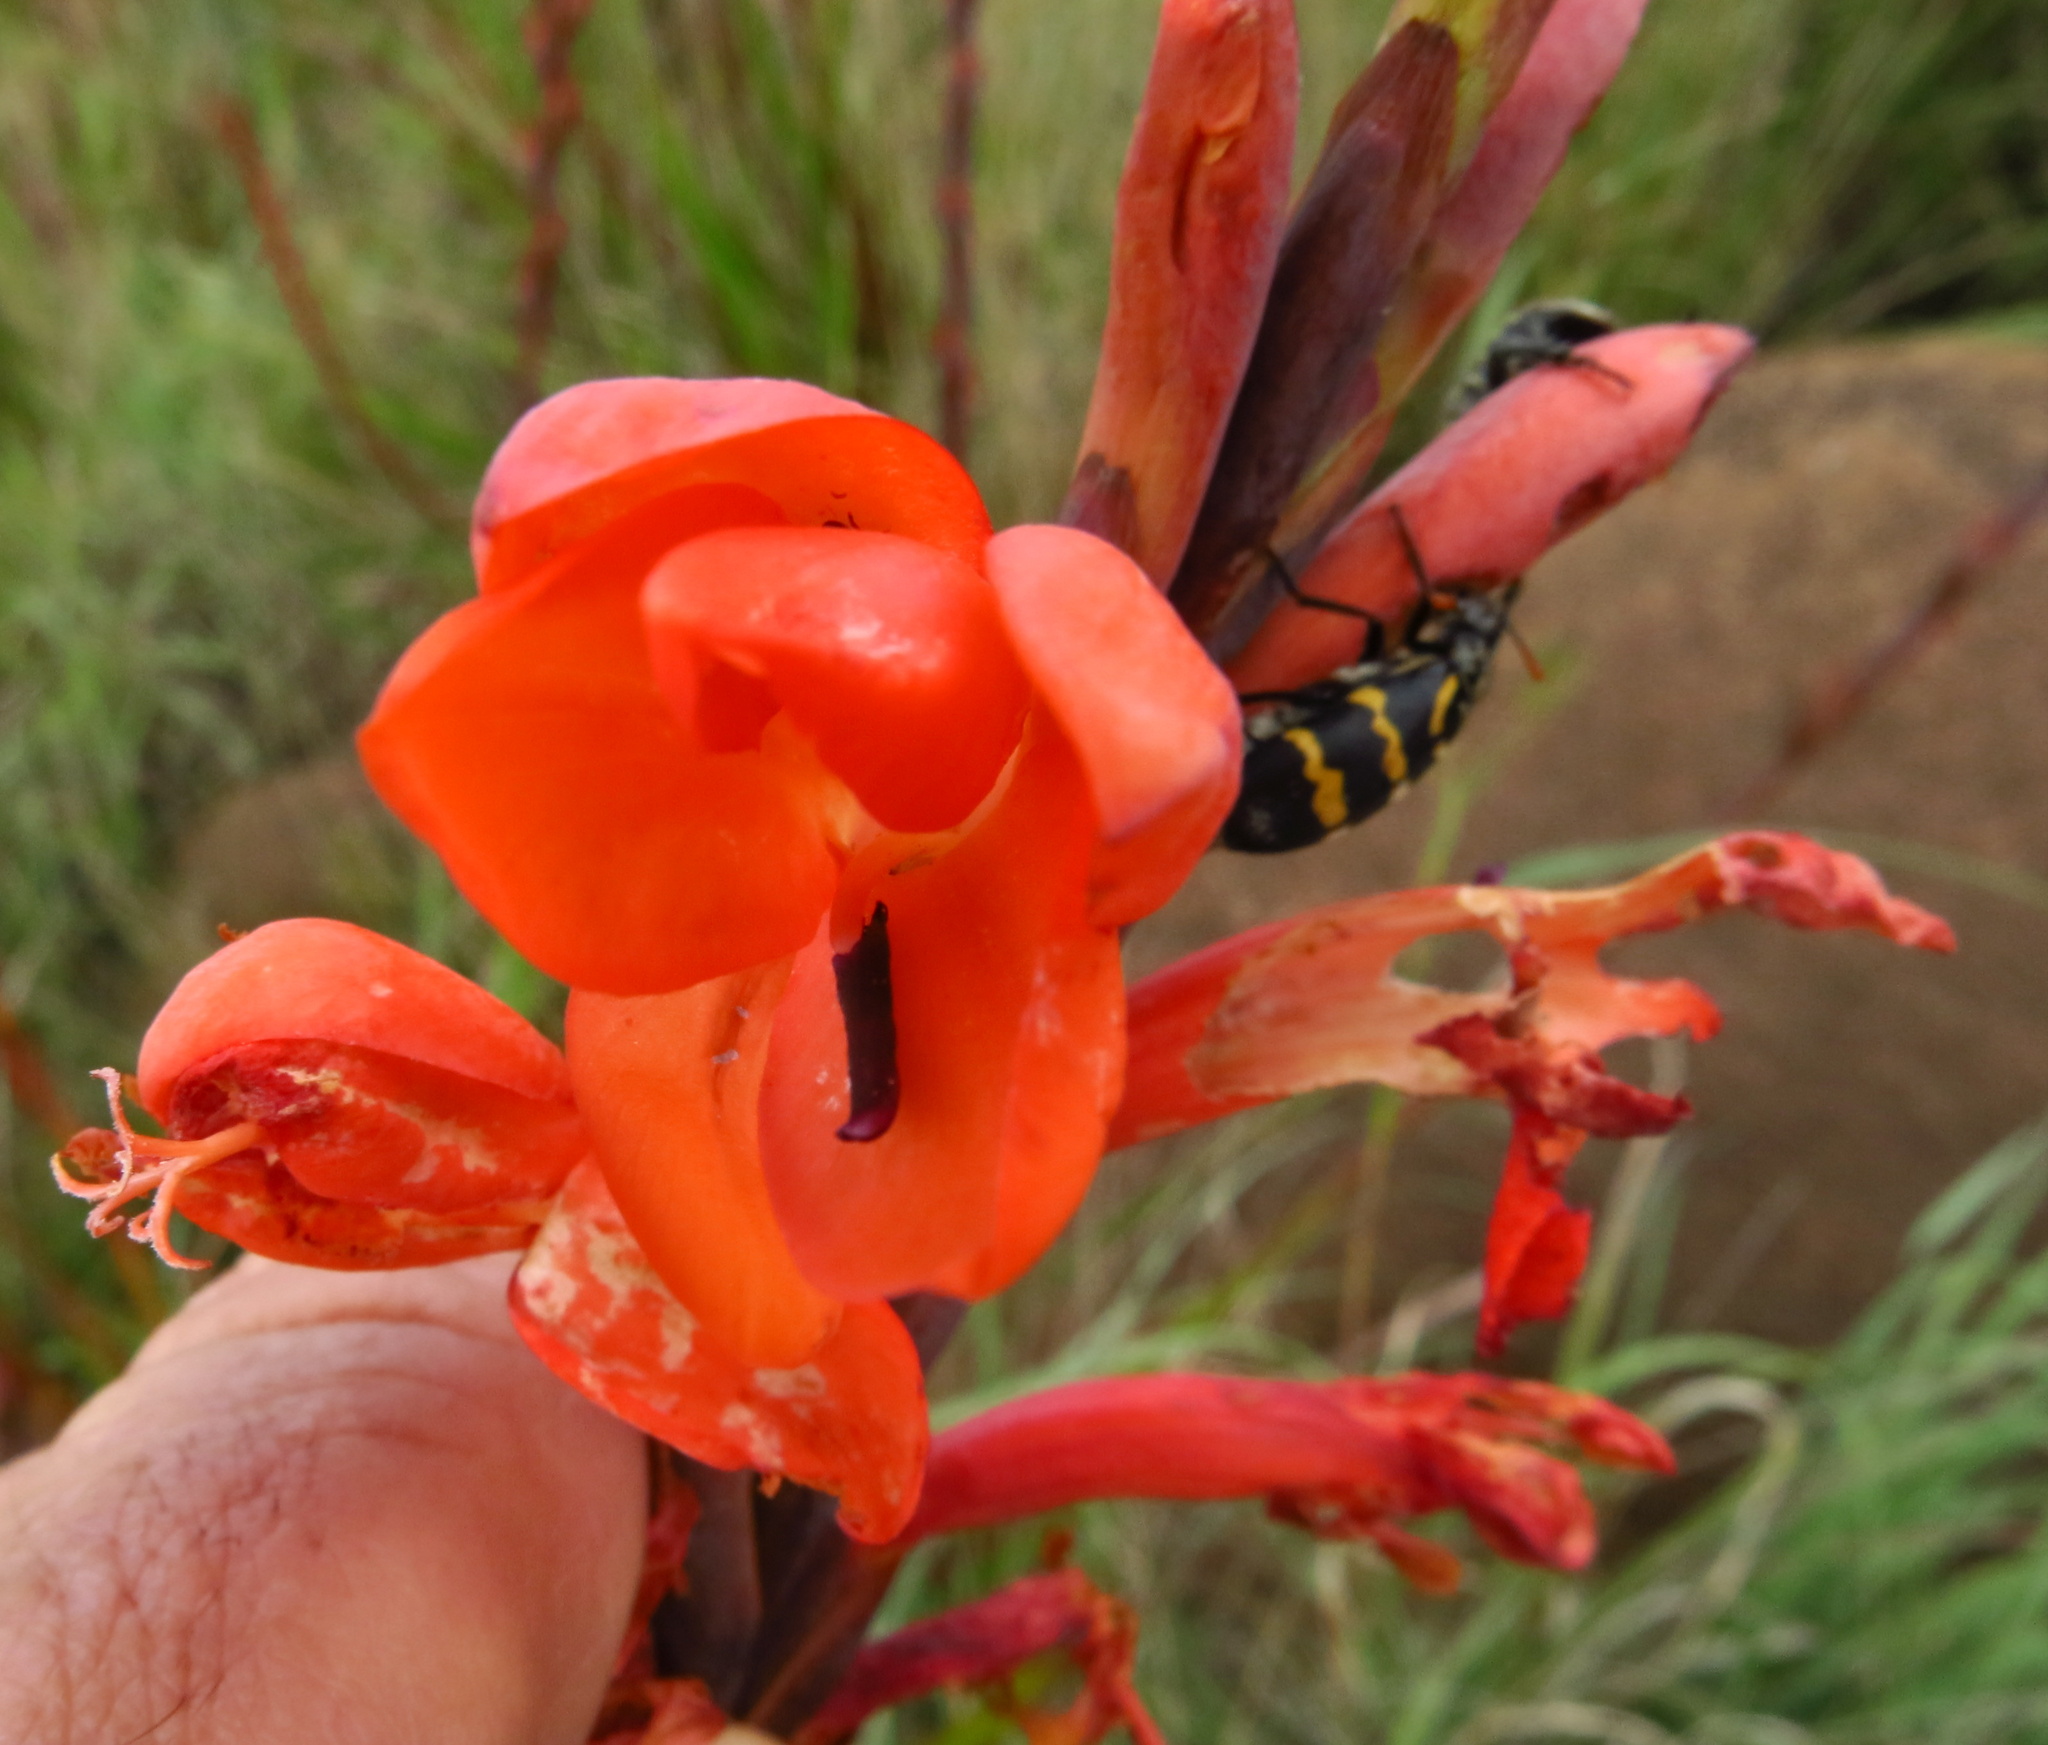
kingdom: Animalia
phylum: Arthropoda
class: Insecta
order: Coleoptera
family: Meloidae
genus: Meloe
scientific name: Meloe lunata
